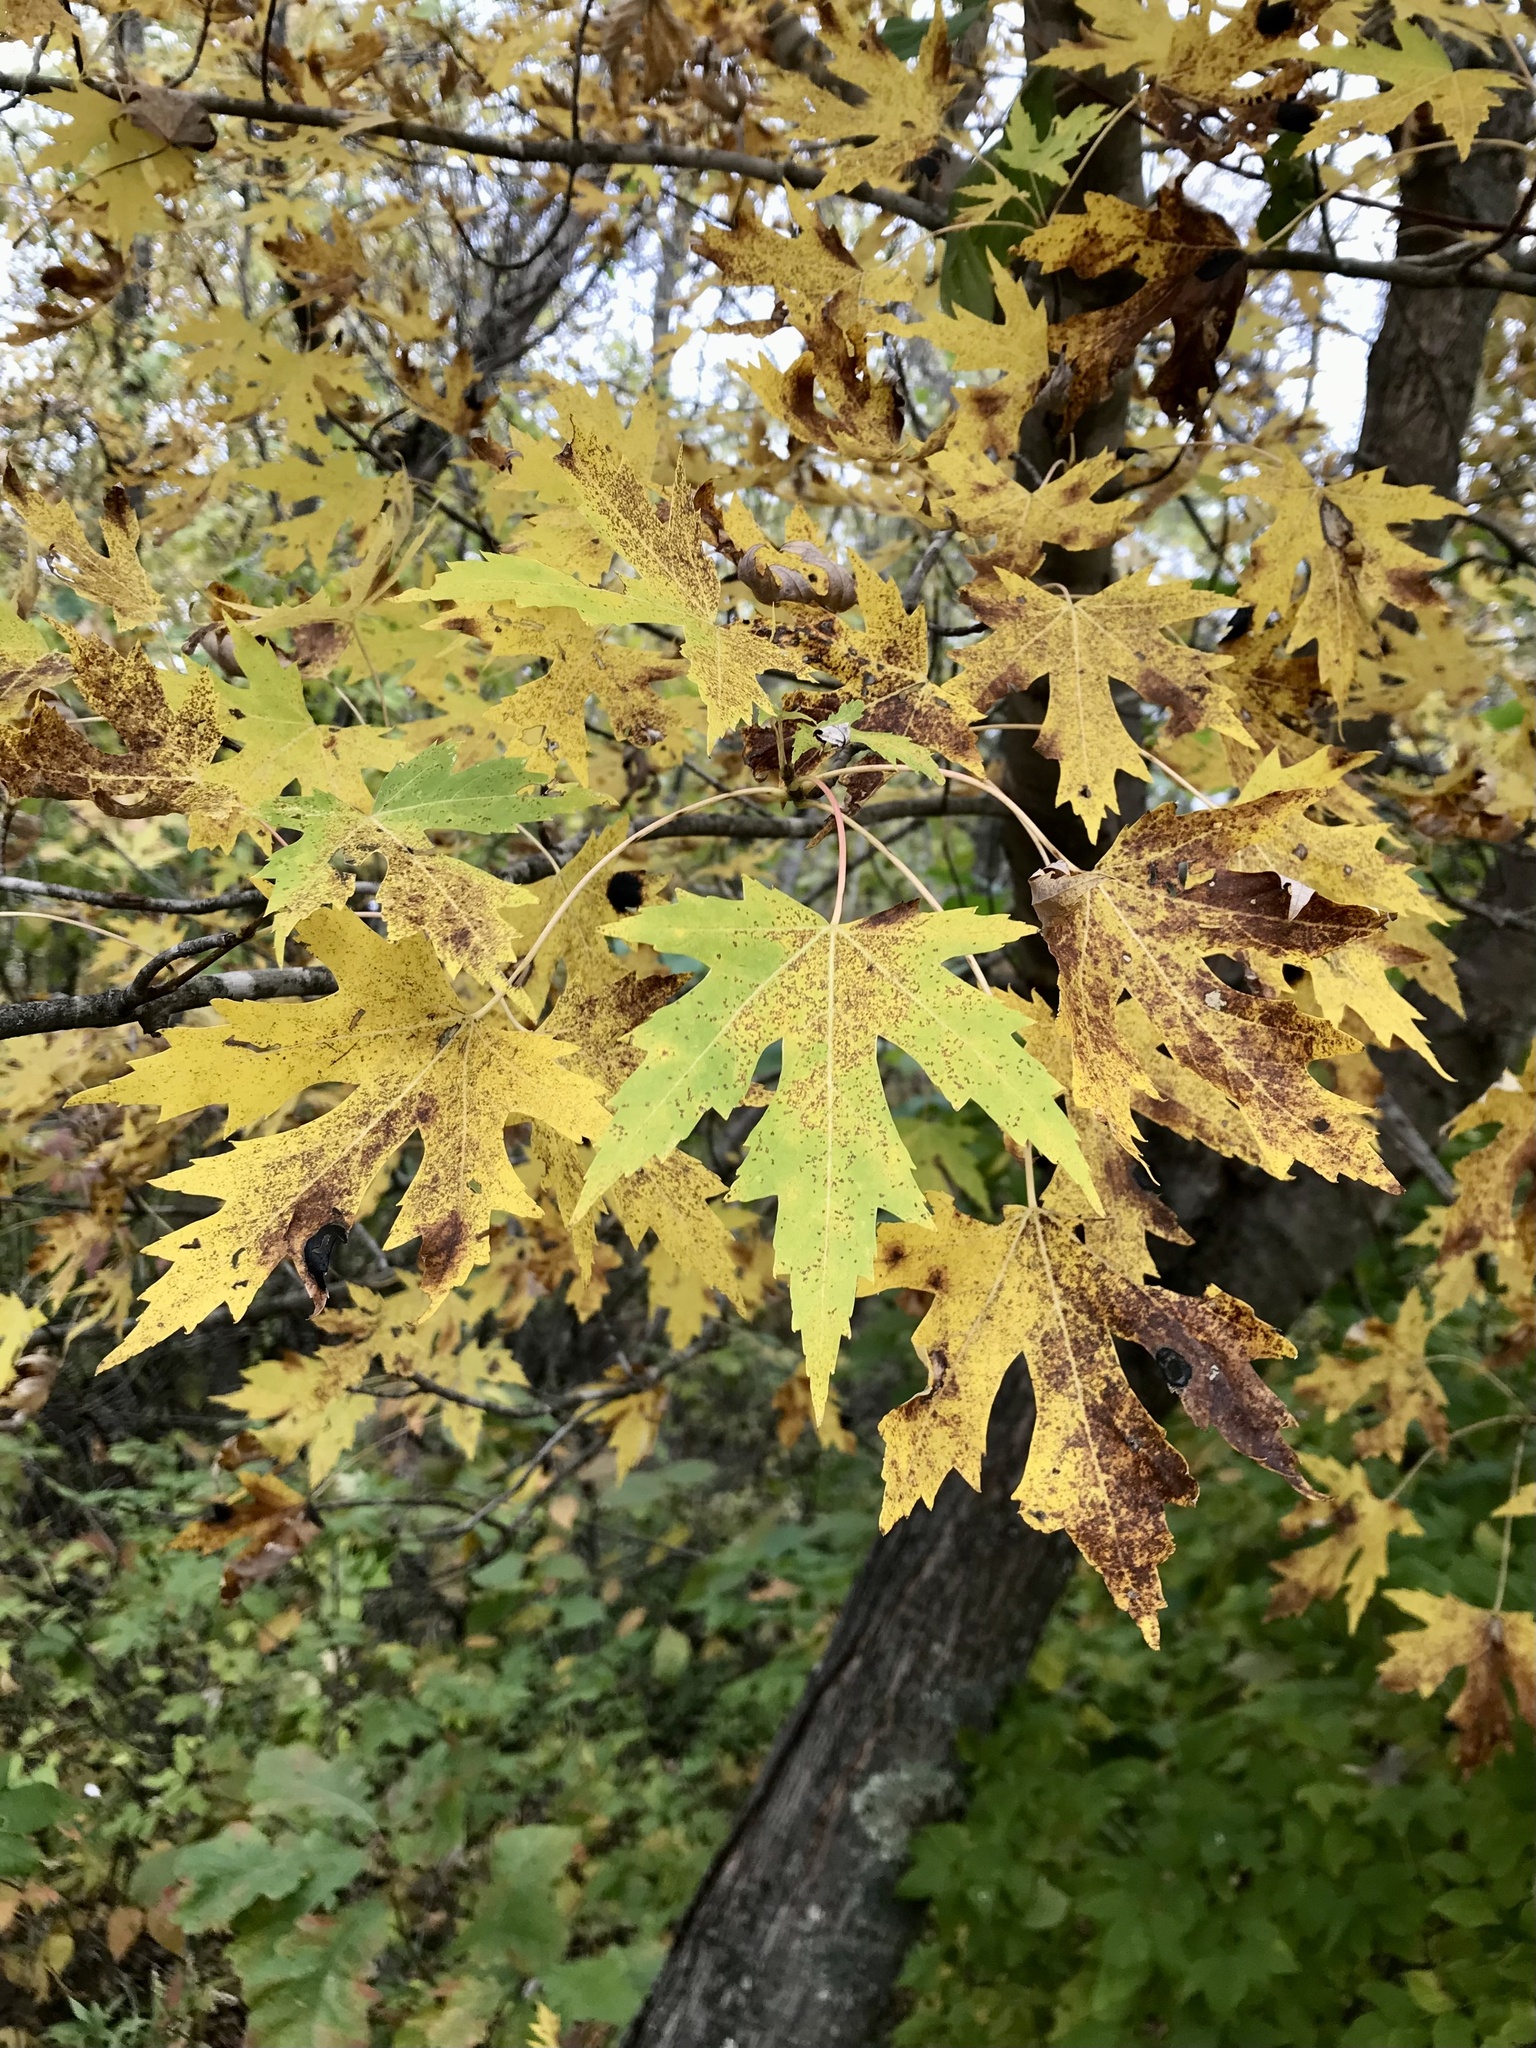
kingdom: Plantae
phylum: Tracheophyta
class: Magnoliopsida
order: Sapindales
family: Sapindaceae
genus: Acer
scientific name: Acer saccharinum
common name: Silver maple
